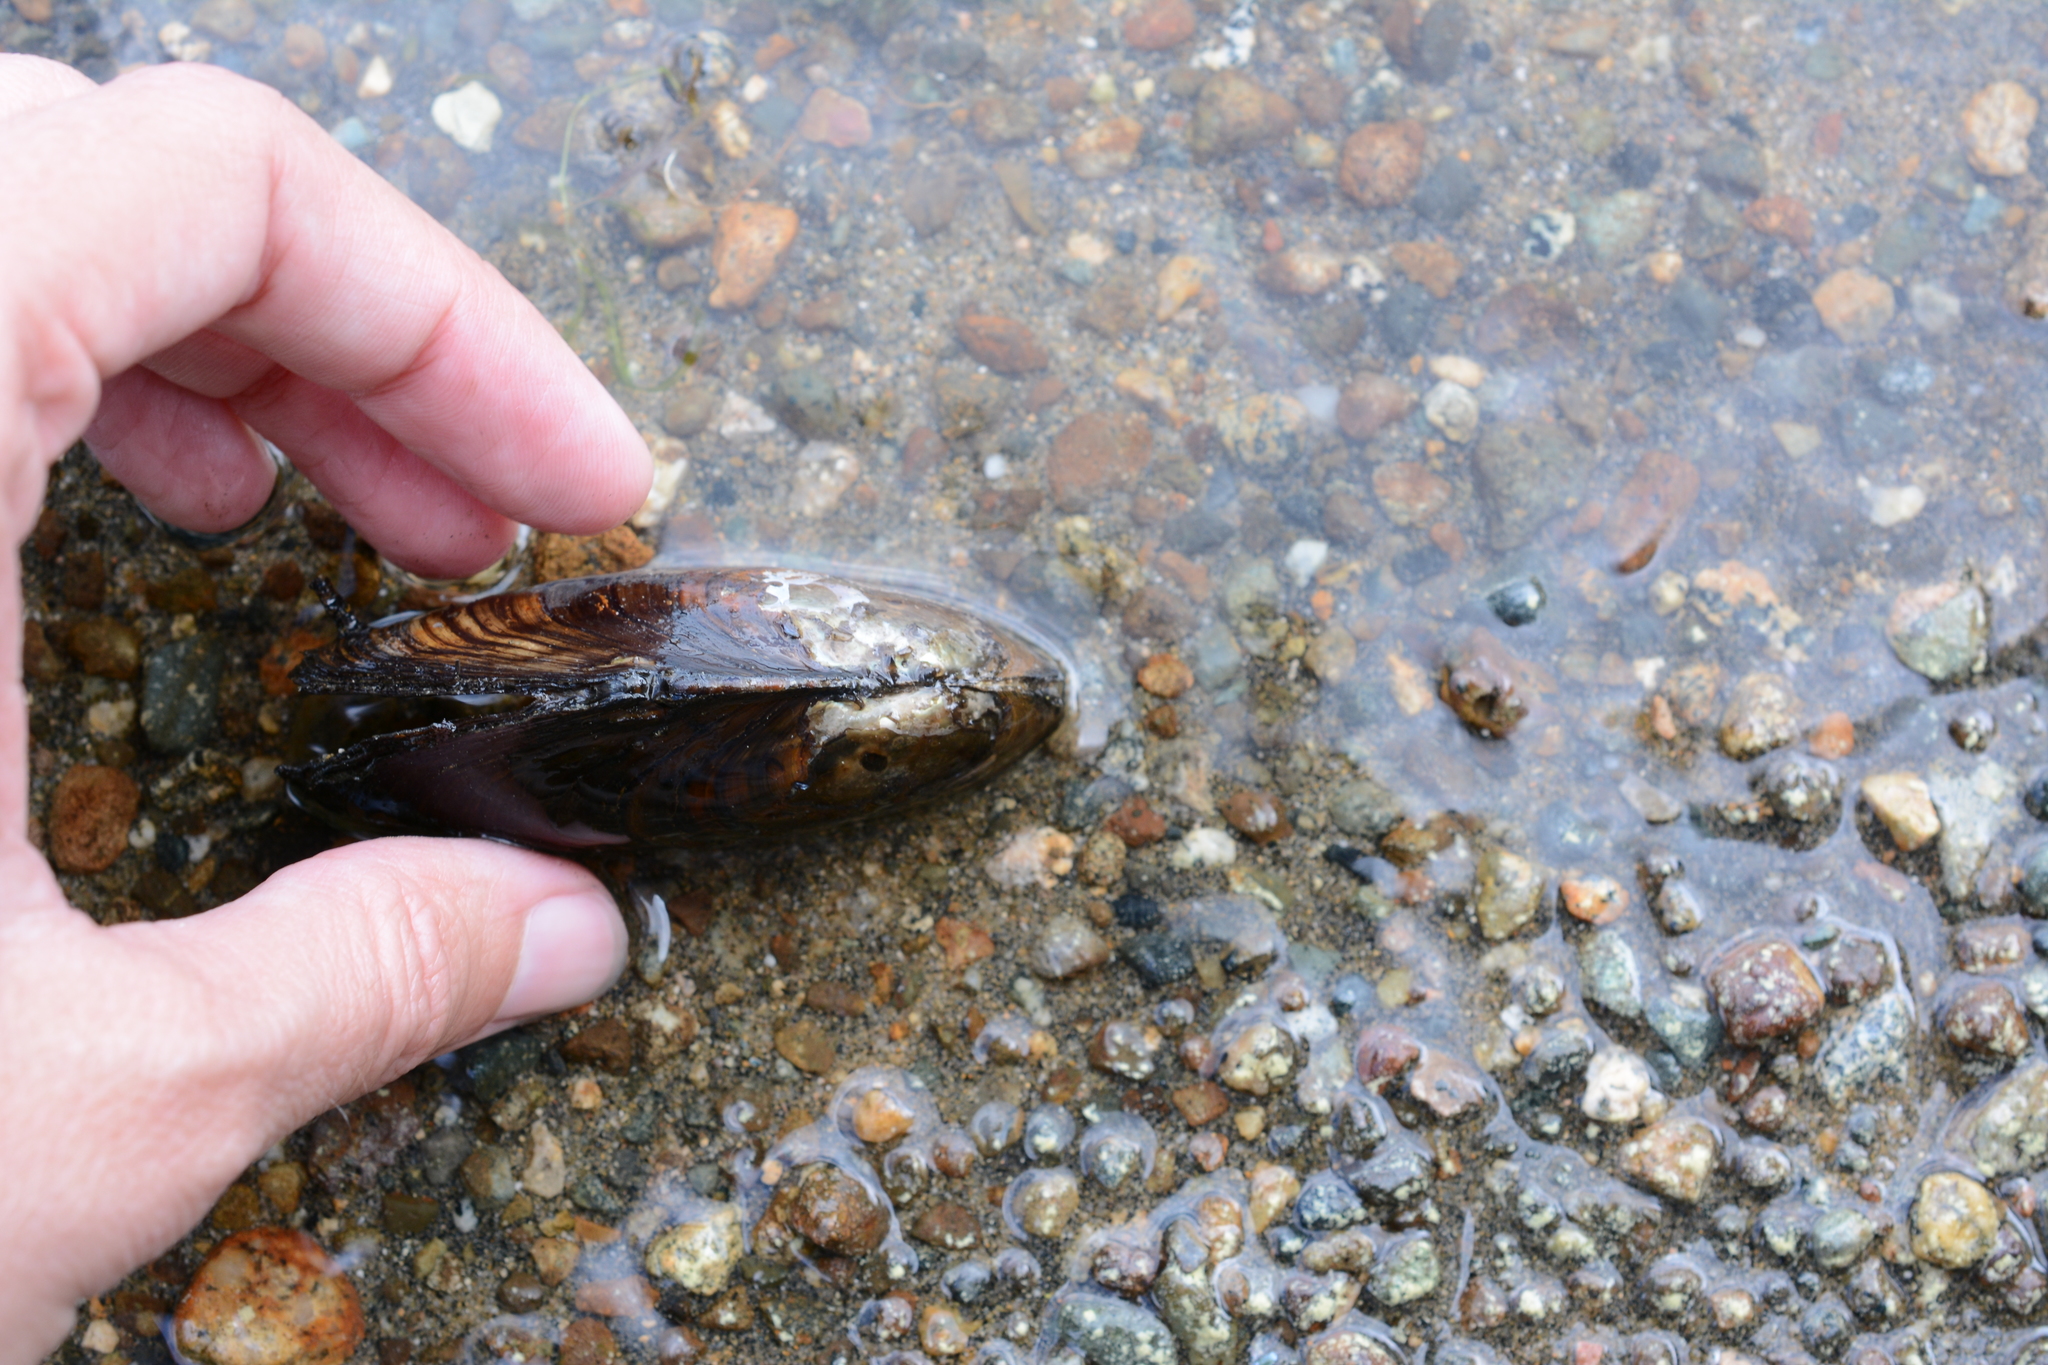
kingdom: Animalia
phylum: Mollusca
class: Bivalvia
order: Unionida
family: Unionidae
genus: Anodonta
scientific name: Anodonta kennerlyi
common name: Western floater
